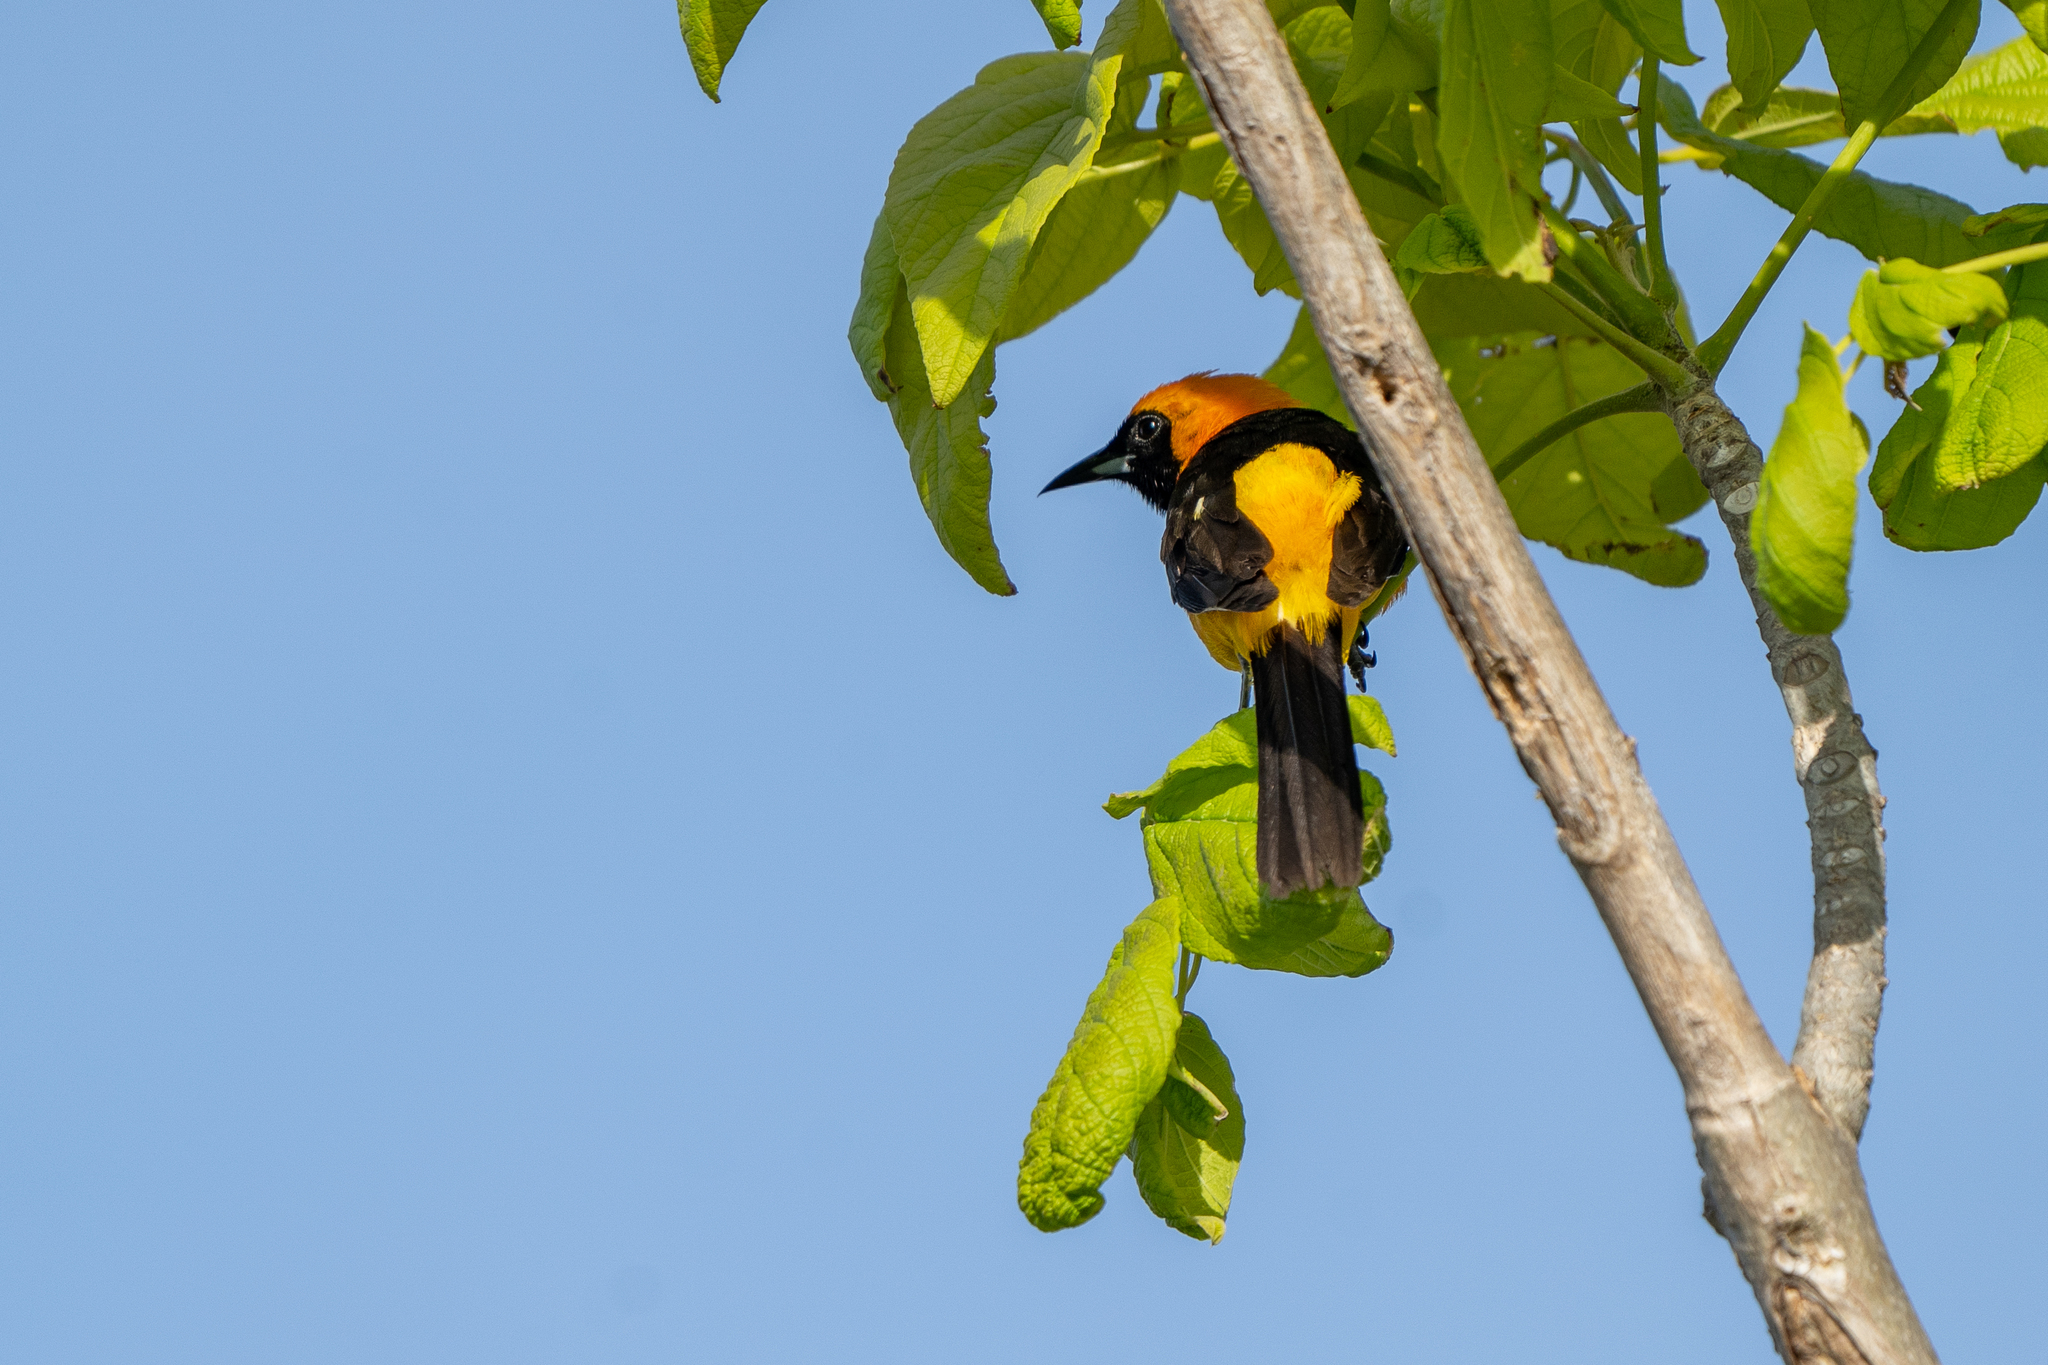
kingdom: Animalia
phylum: Chordata
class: Aves
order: Passeriformes
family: Icteridae
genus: Icterus
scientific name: Icterus cucullatus
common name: Hooded oriole
